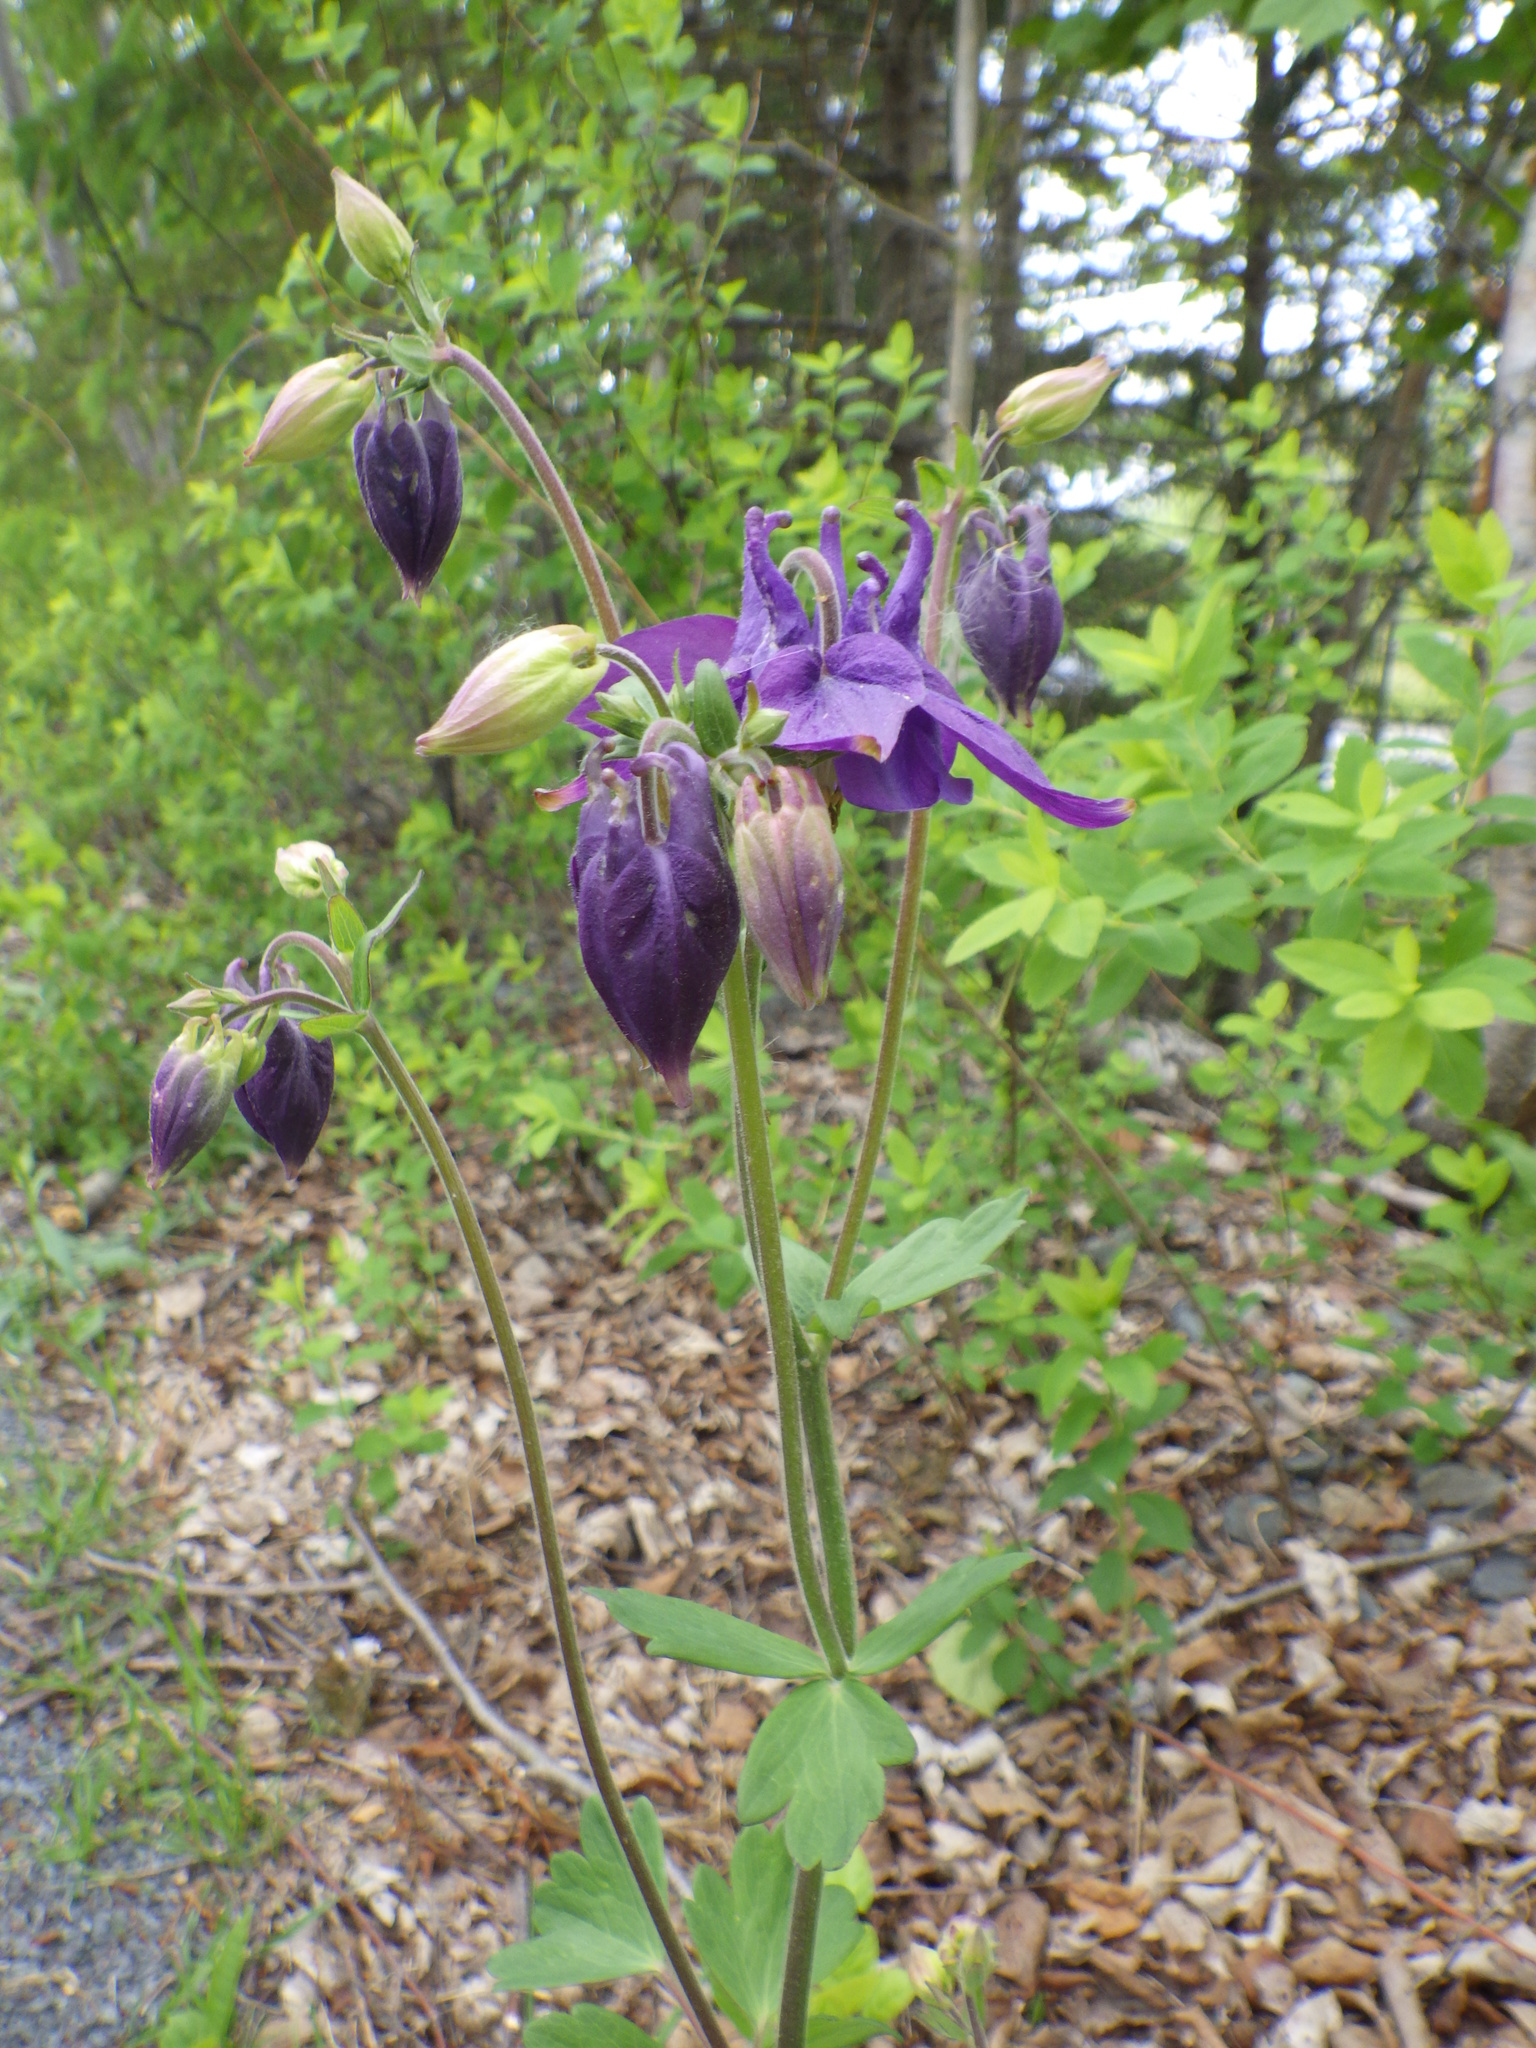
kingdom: Plantae
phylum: Tracheophyta
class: Magnoliopsida
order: Ranunculales
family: Ranunculaceae
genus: Aquilegia
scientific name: Aquilegia vulgaris
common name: Columbine
